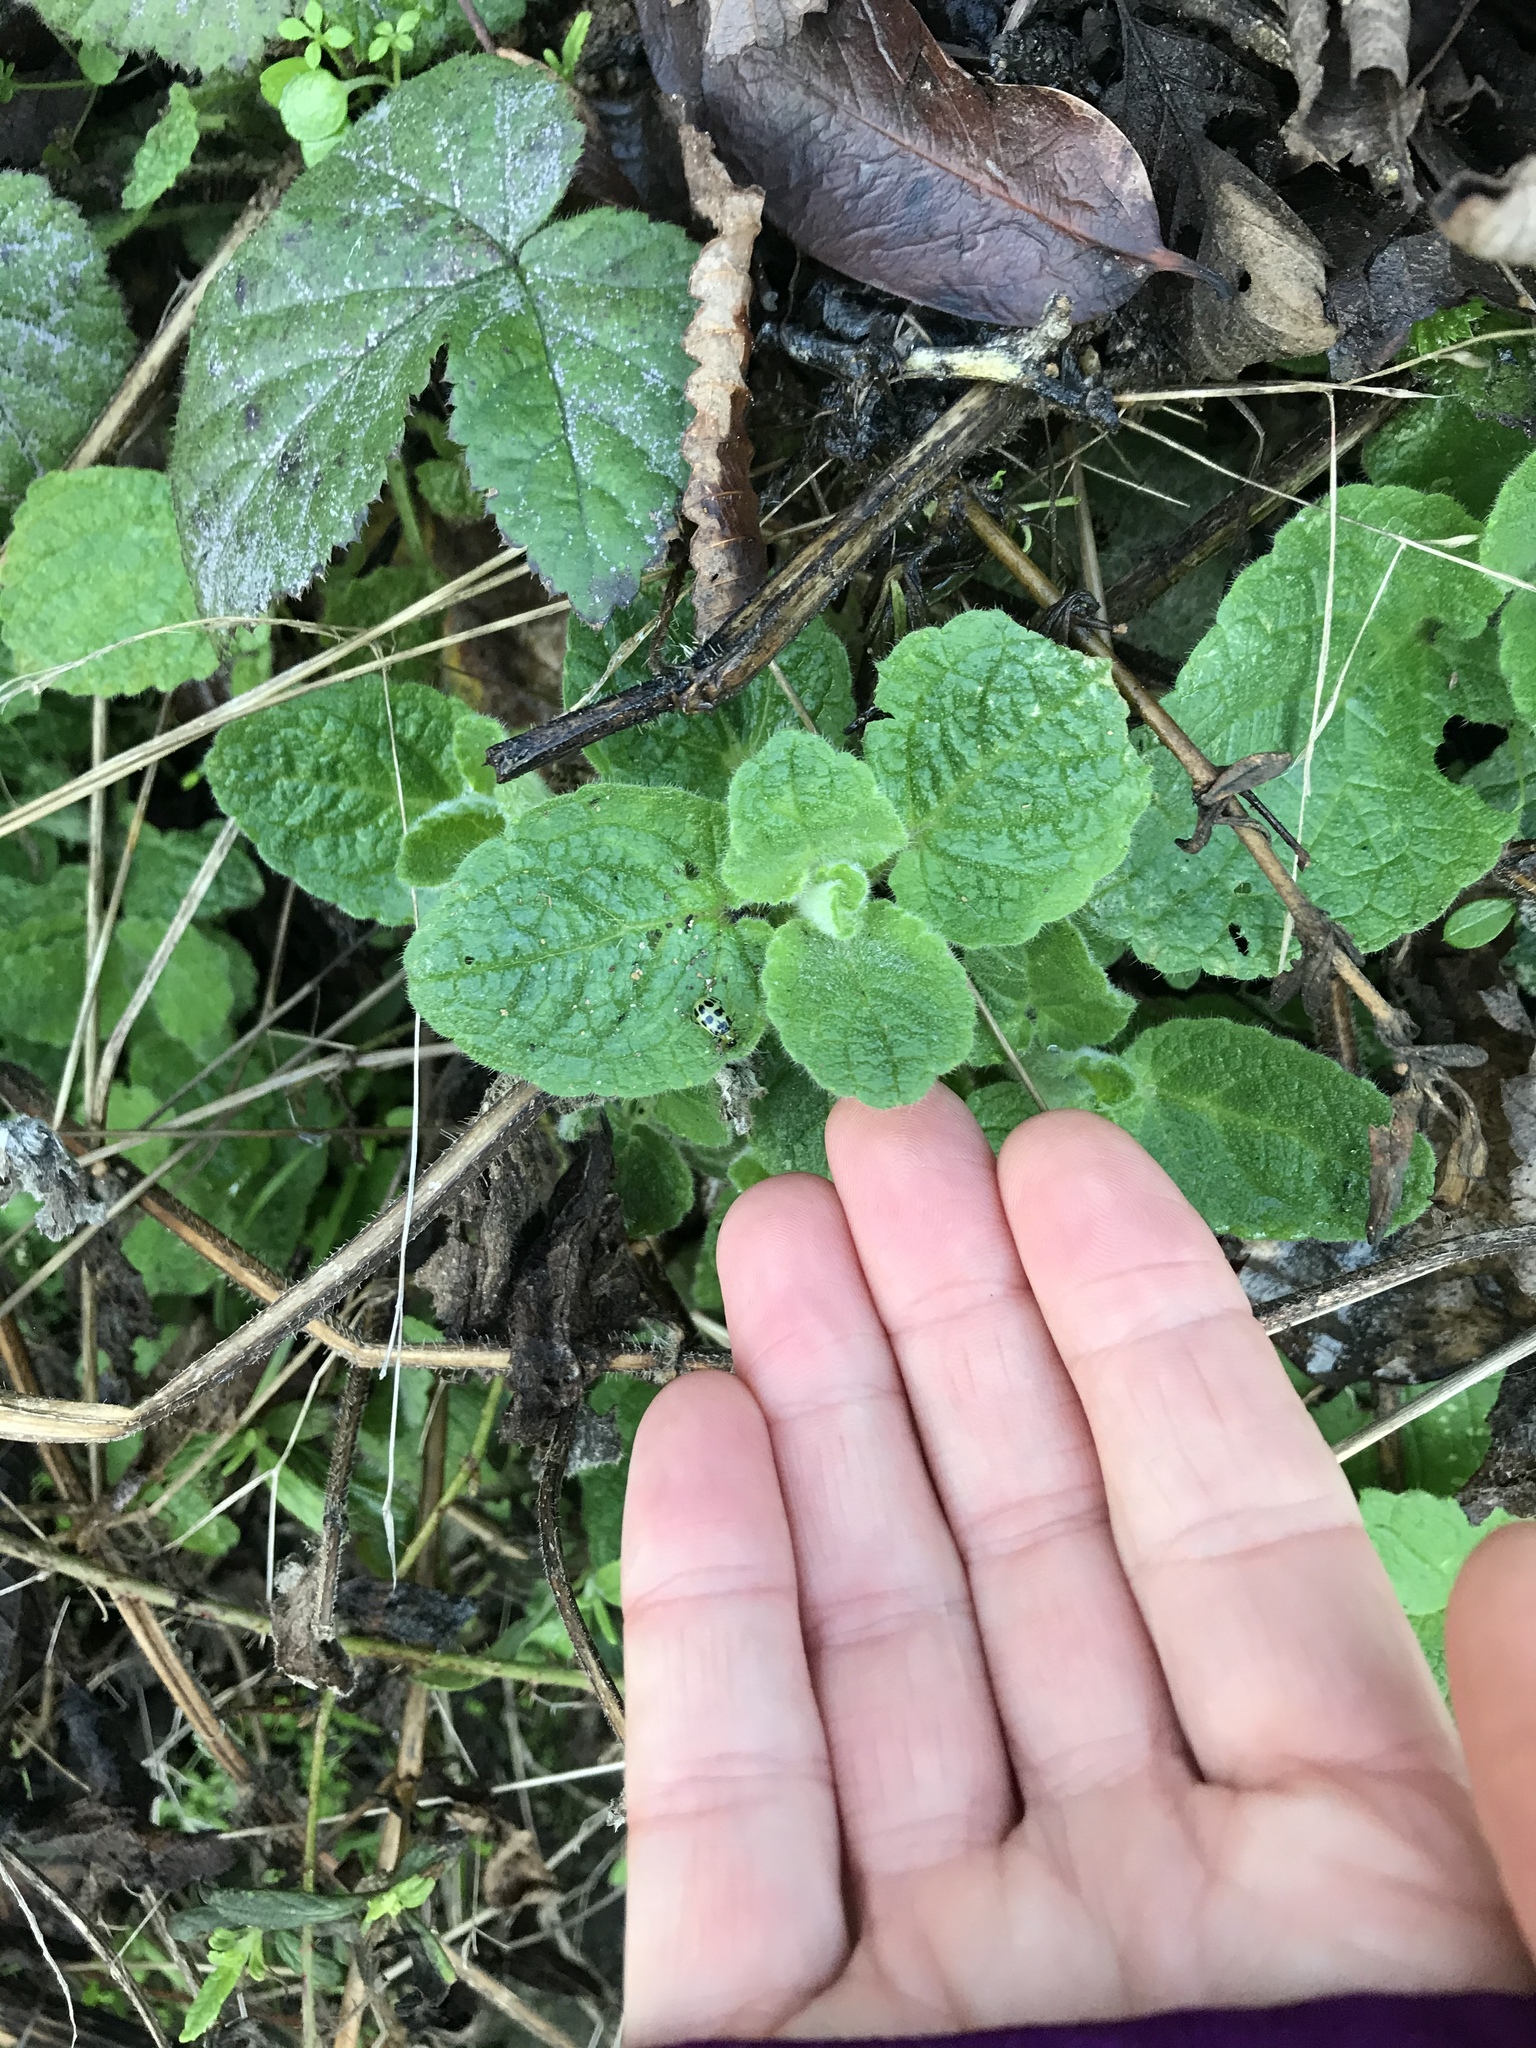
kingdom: Plantae
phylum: Tracheophyta
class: Magnoliopsida
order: Lamiales
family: Lamiaceae
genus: Stachys
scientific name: Stachys
